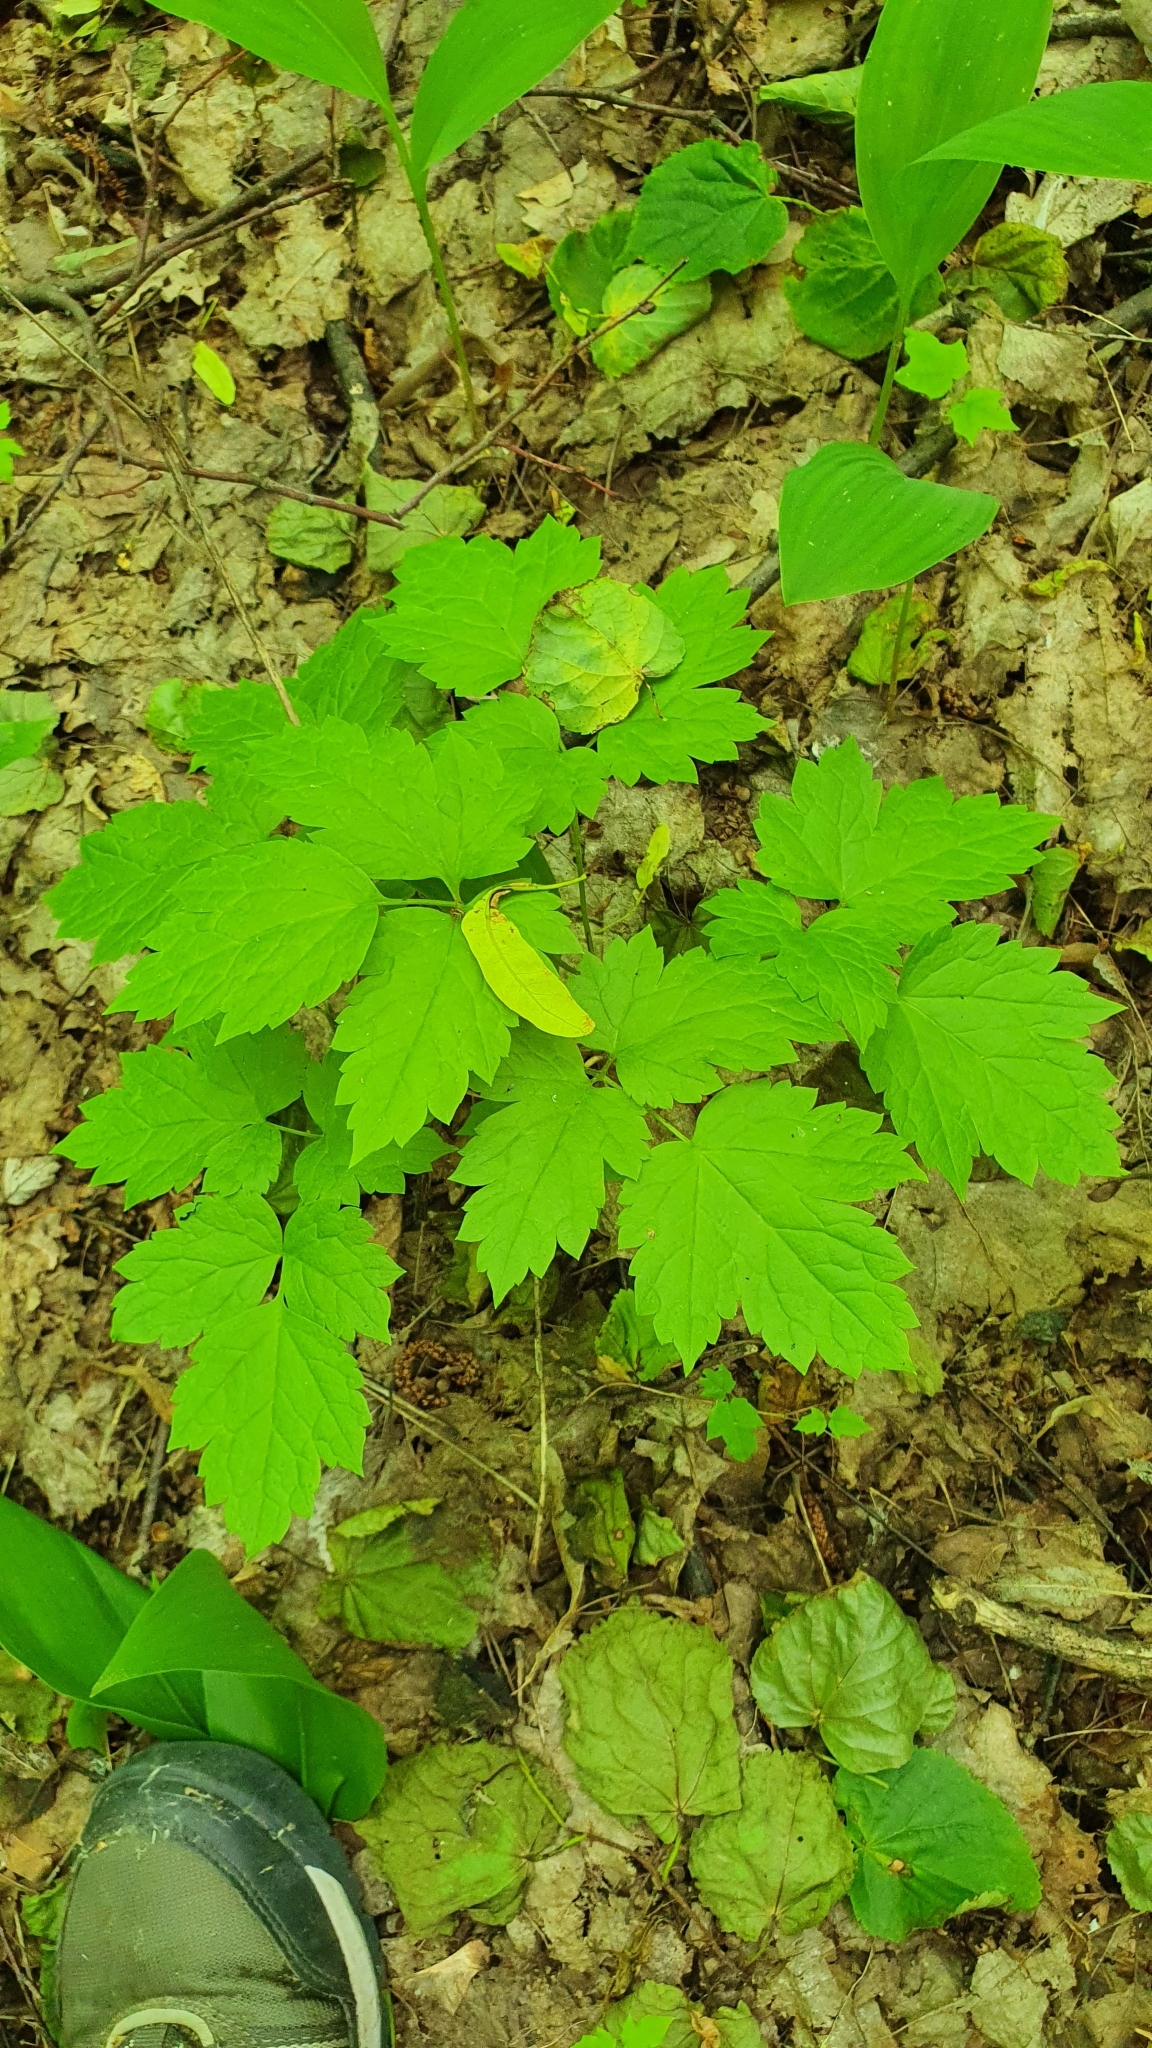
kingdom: Plantae
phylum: Tracheophyta
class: Magnoliopsida
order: Ranunculales
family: Ranunculaceae
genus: Actaea
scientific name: Actaea spicata
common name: Baneberry
